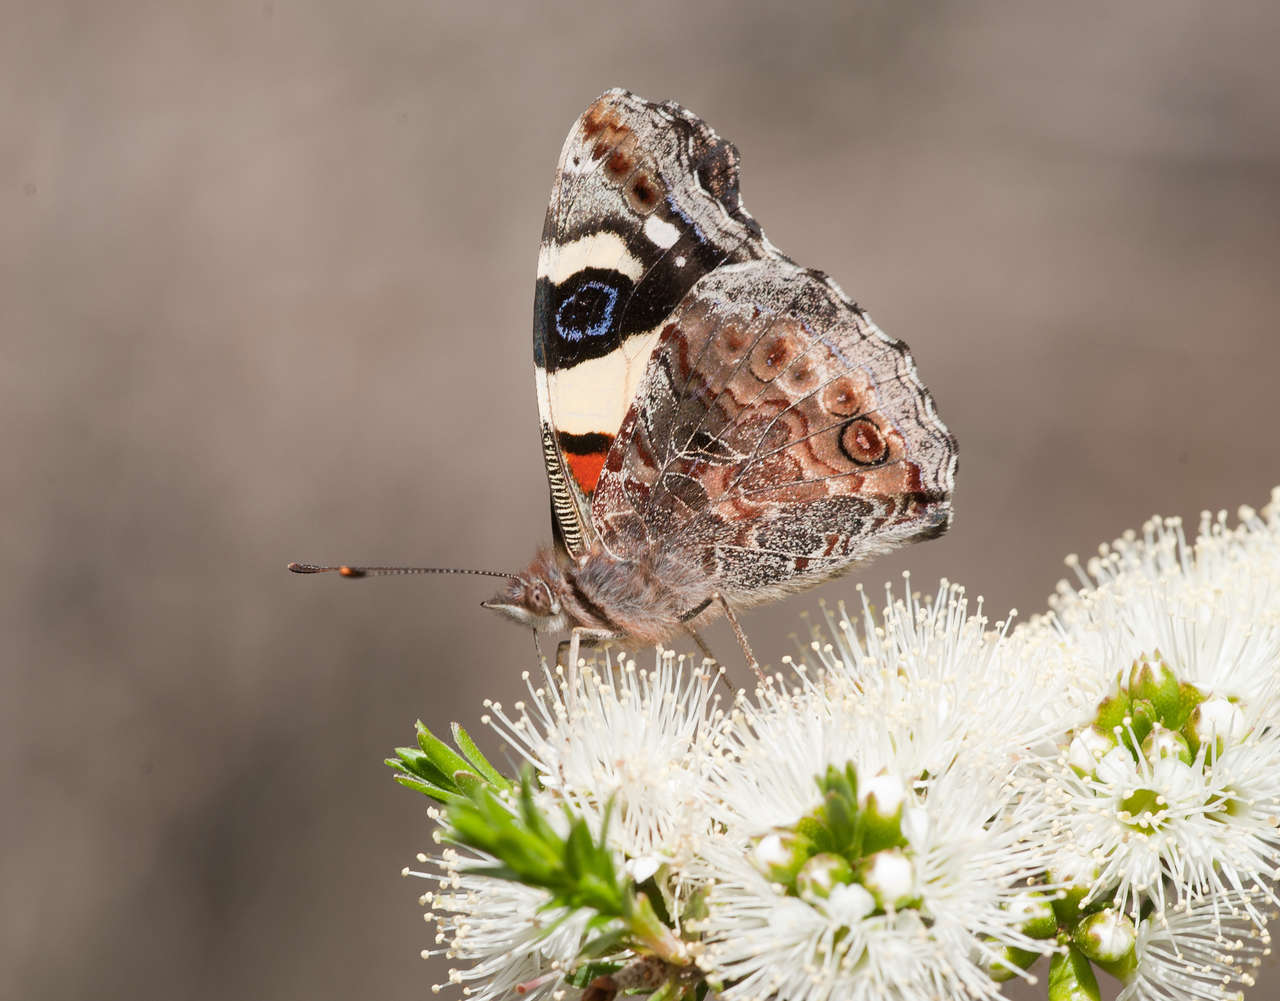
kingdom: Plantae
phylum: Tracheophyta
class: Magnoliopsida
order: Myrtales
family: Myrtaceae
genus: Kunzea
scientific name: Kunzea ambigua
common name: Tickbush
